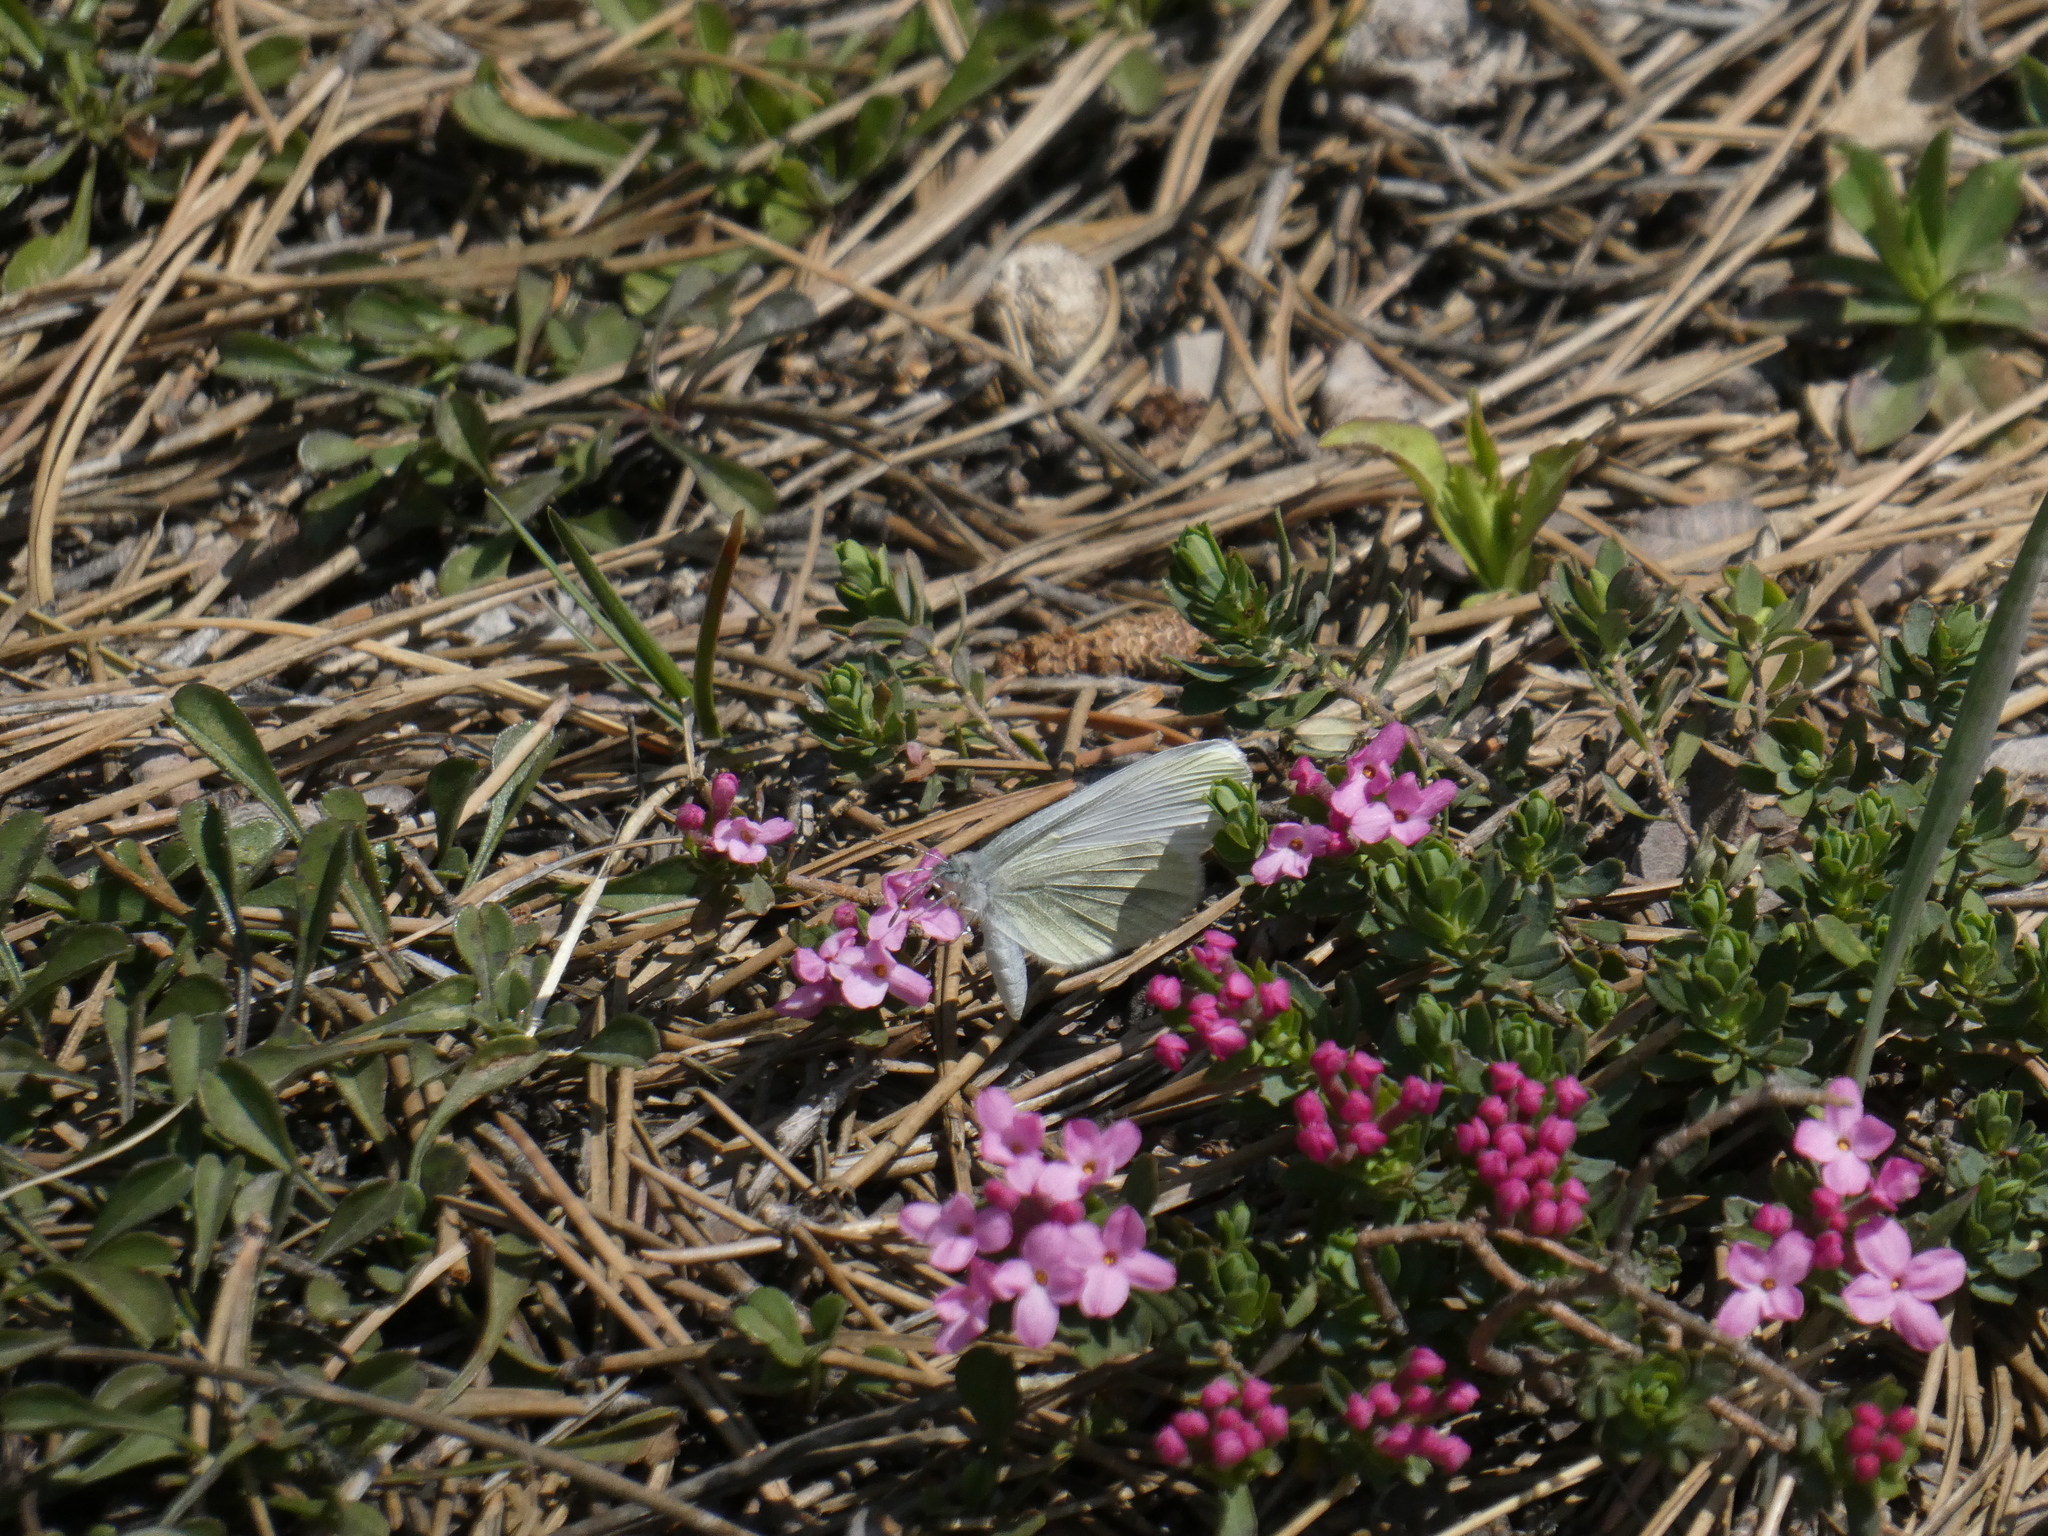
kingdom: Animalia
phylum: Arthropoda
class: Insecta
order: Lepidoptera
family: Pieridae
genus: Leptidea
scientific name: Leptidea
